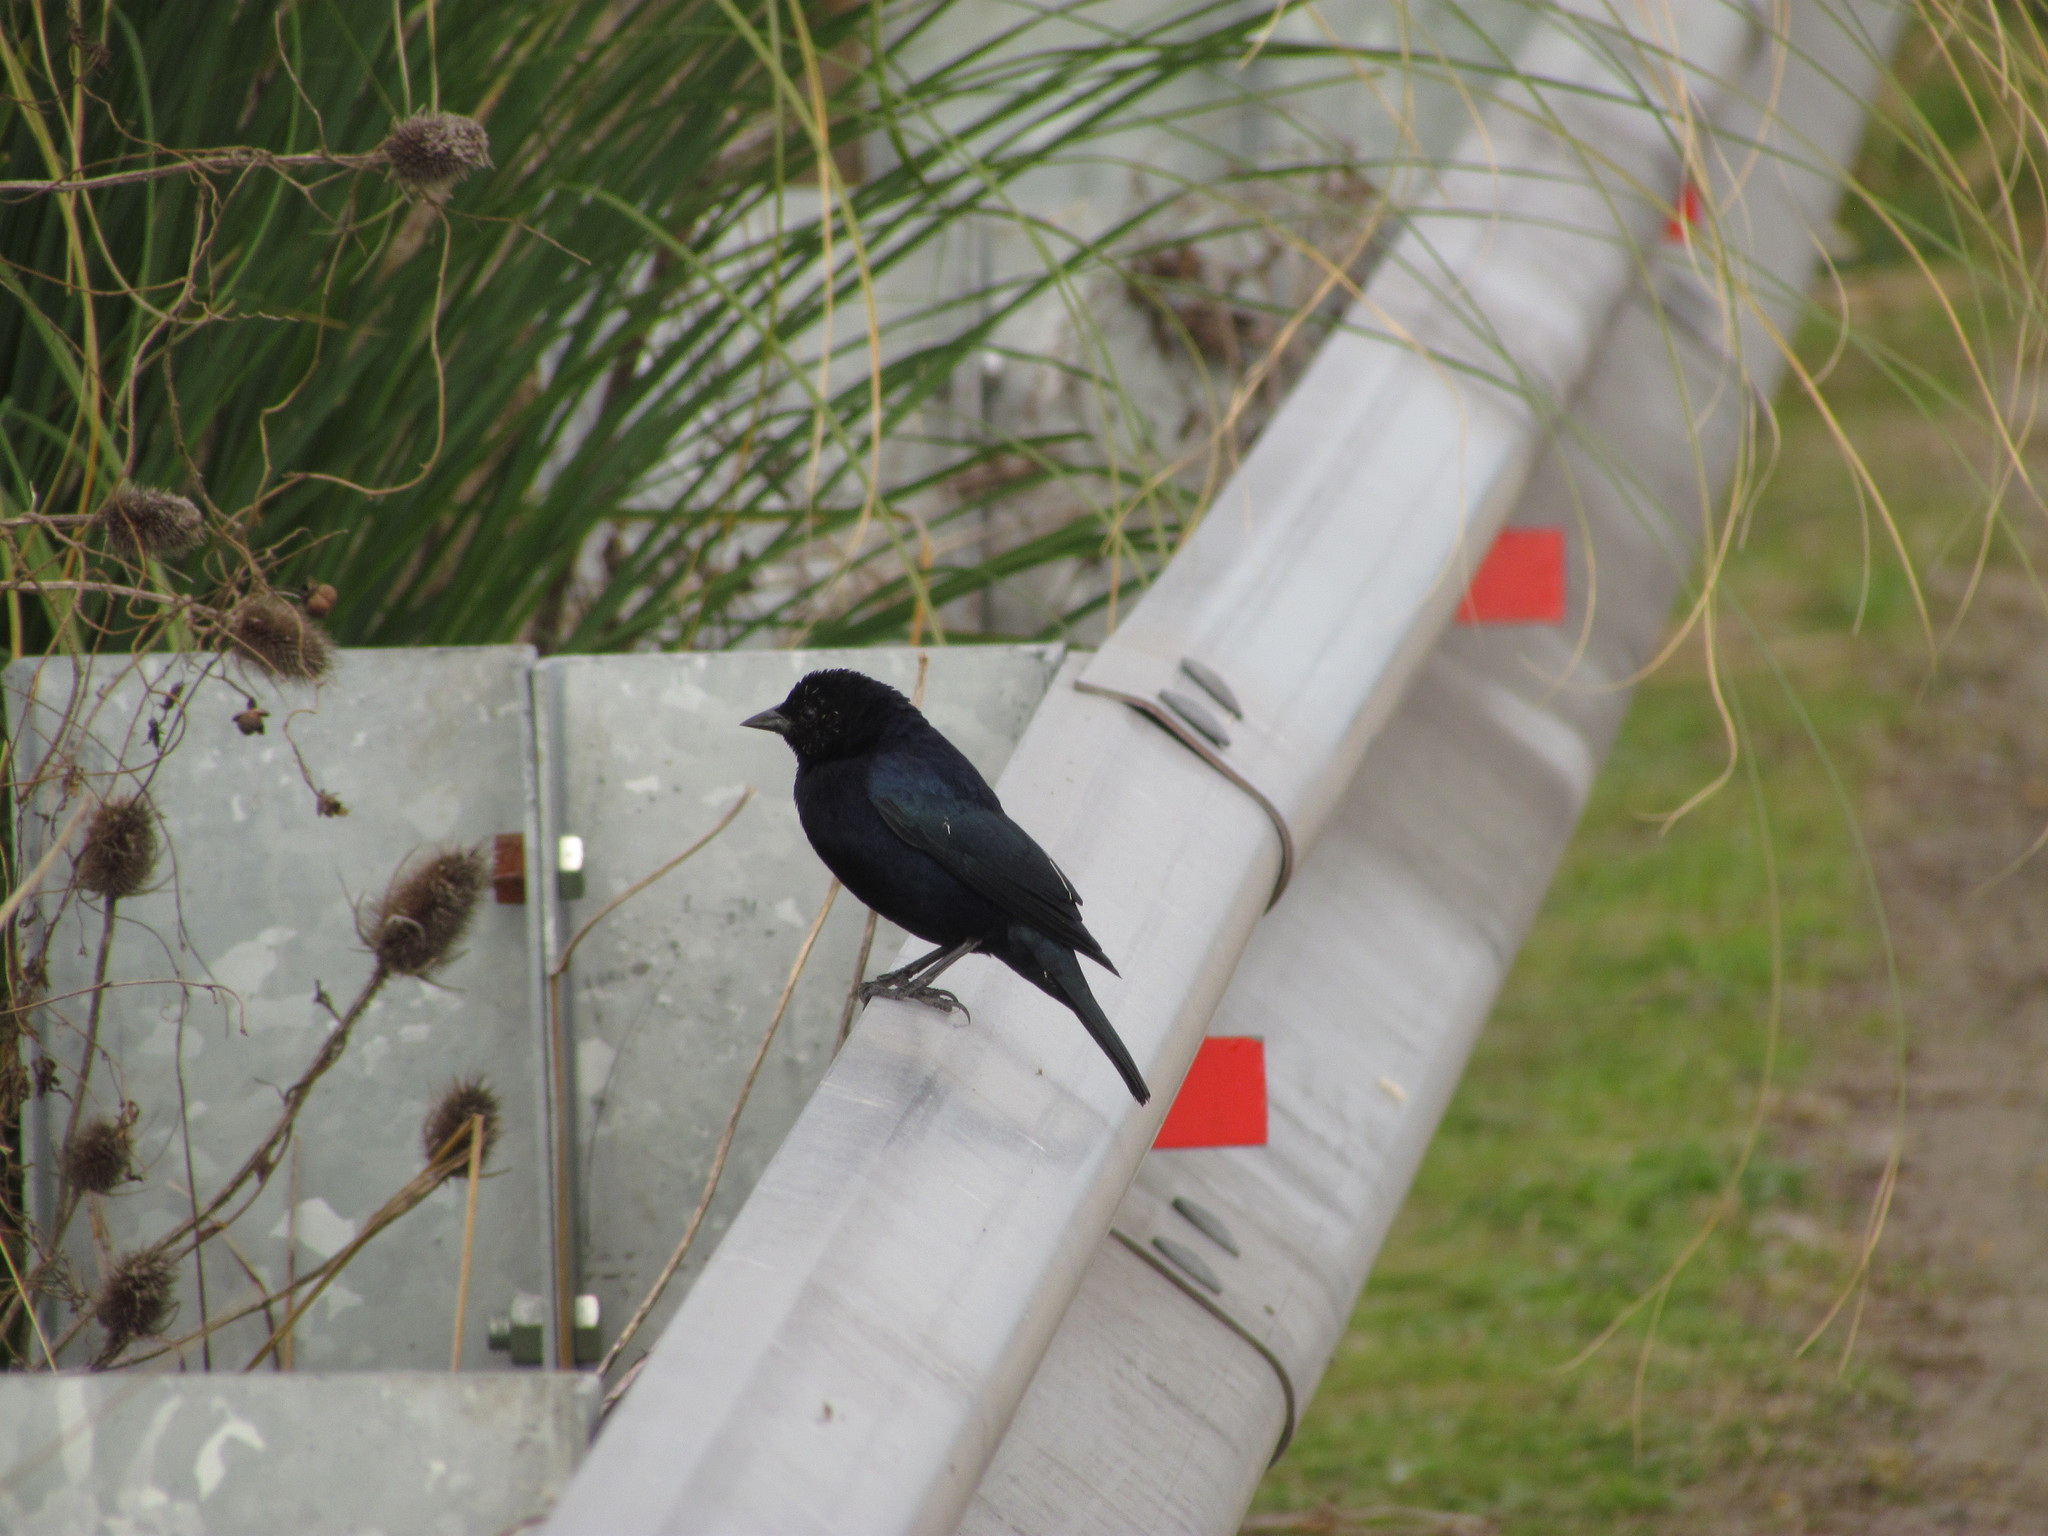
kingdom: Animalia
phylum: Chordata
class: Aves
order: Passeriformes
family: Icteridae
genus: Molothrus
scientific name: Molothrus bonariensis
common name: Shiny cowbird
